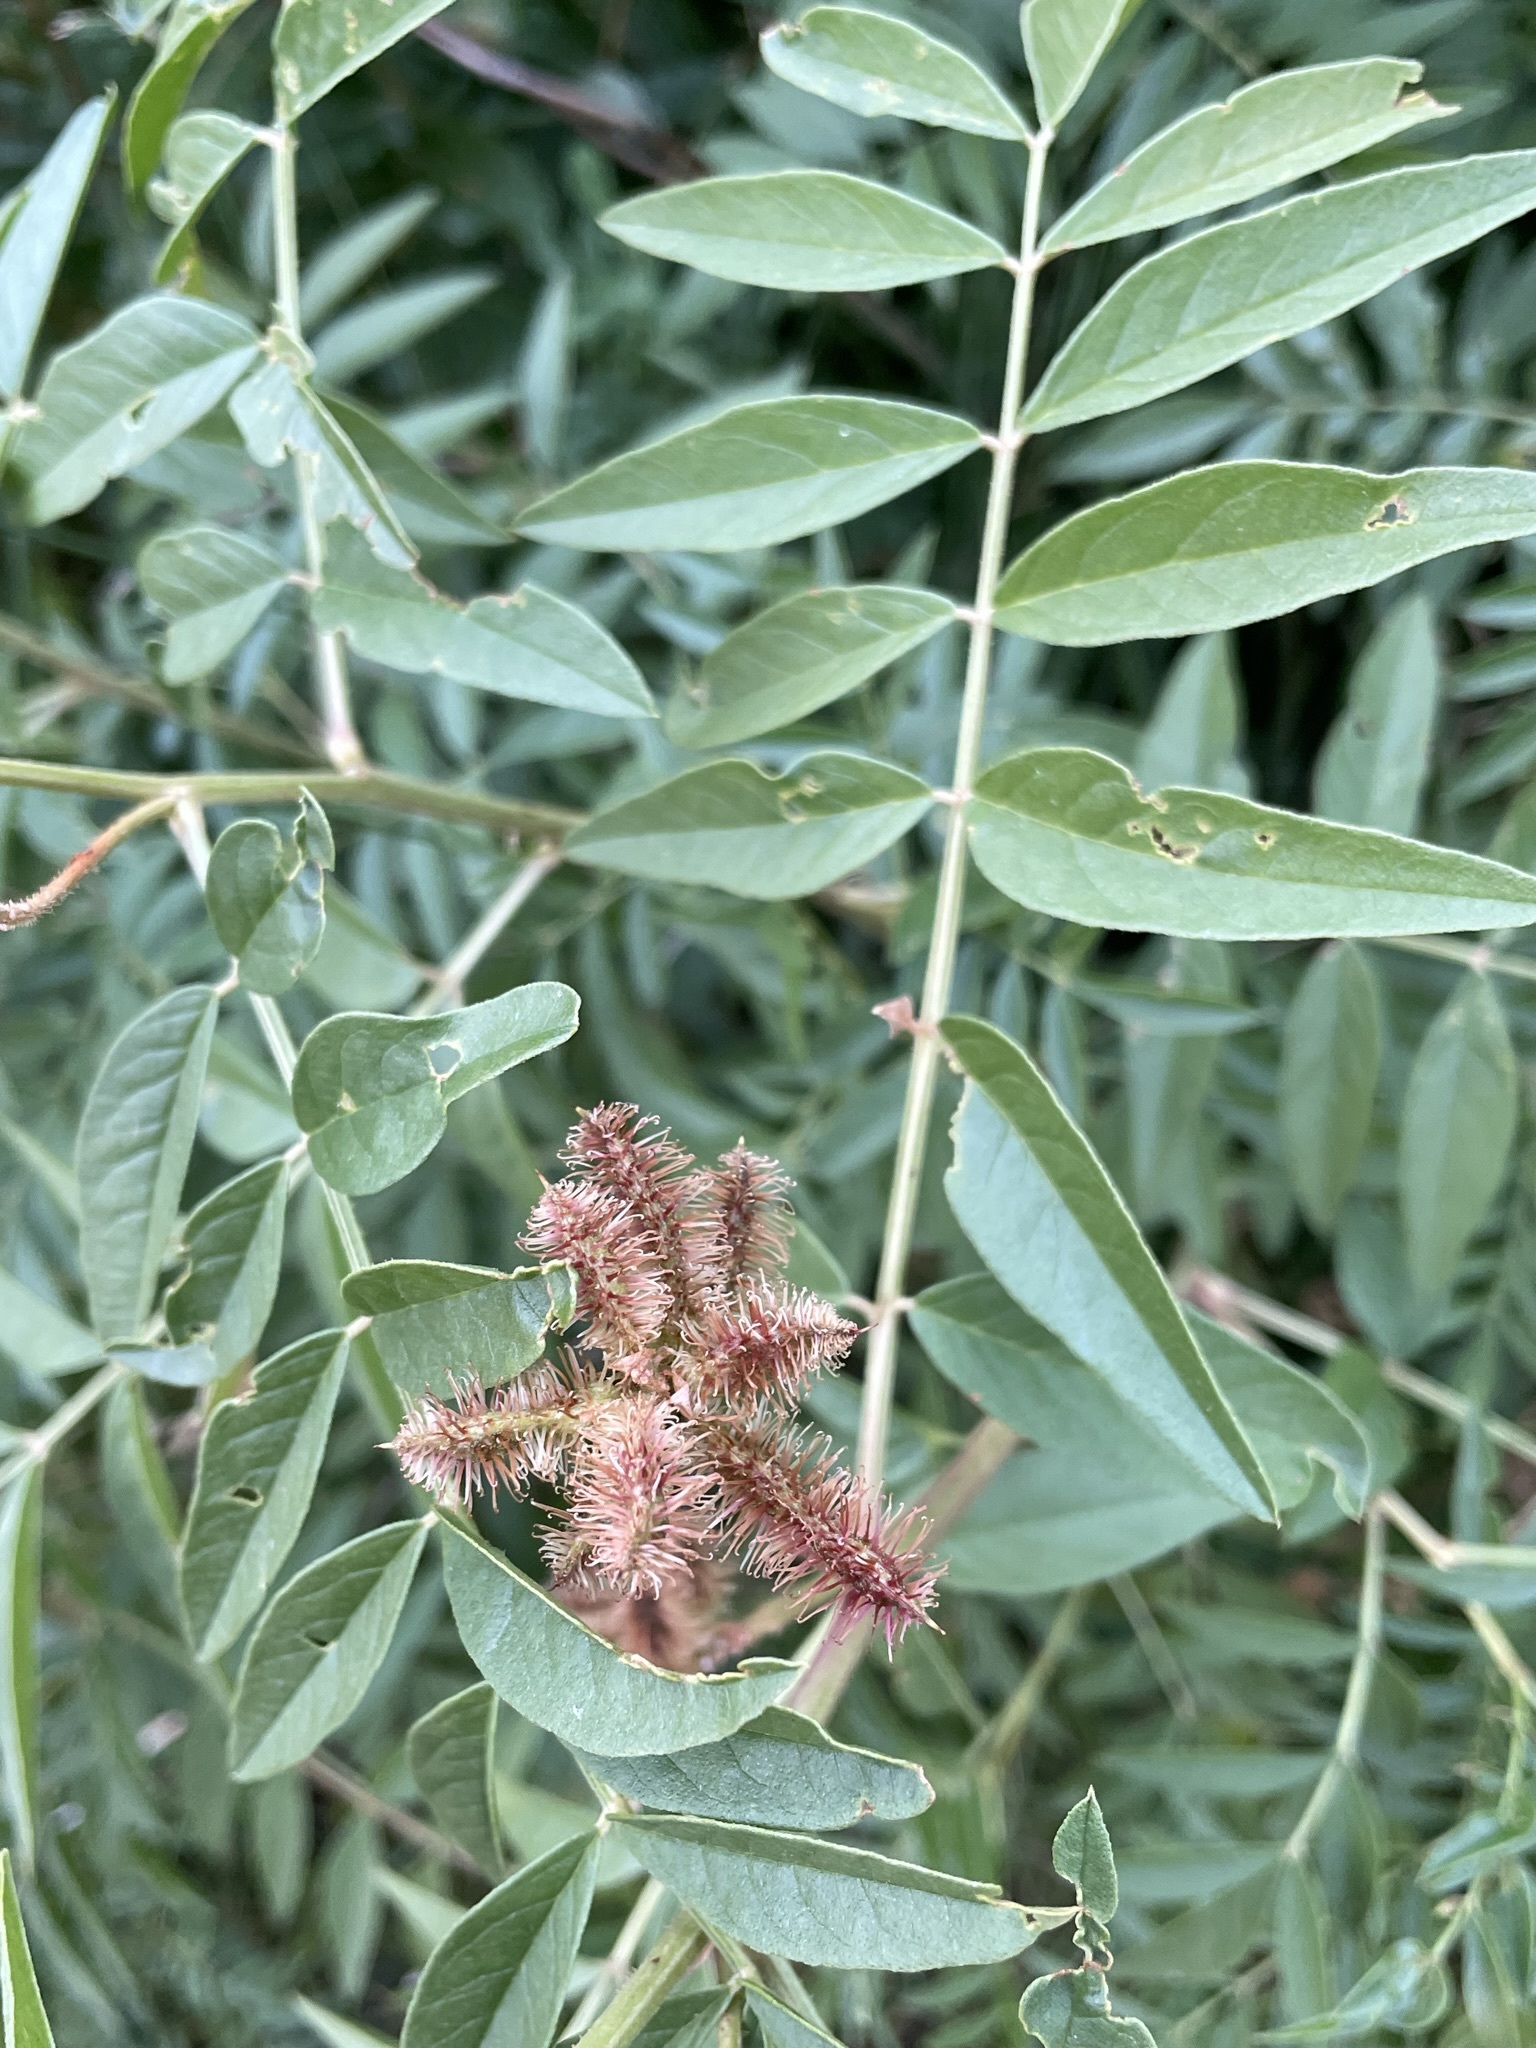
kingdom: Plantae
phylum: Tracheophyta
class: Magnoliopsida
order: Fabales
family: Fabaceae
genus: Glycyrrhiza
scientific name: Glycyrrhiza lepidota
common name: American liquorice
